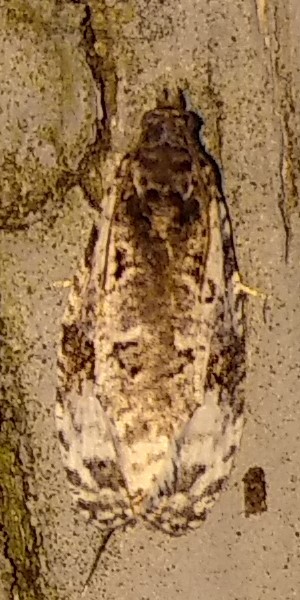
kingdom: Animalia
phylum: Arthropoda
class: Insecta
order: Lepidoptera
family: Tortricidae
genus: Apotomis
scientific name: Apotomis albeolana
